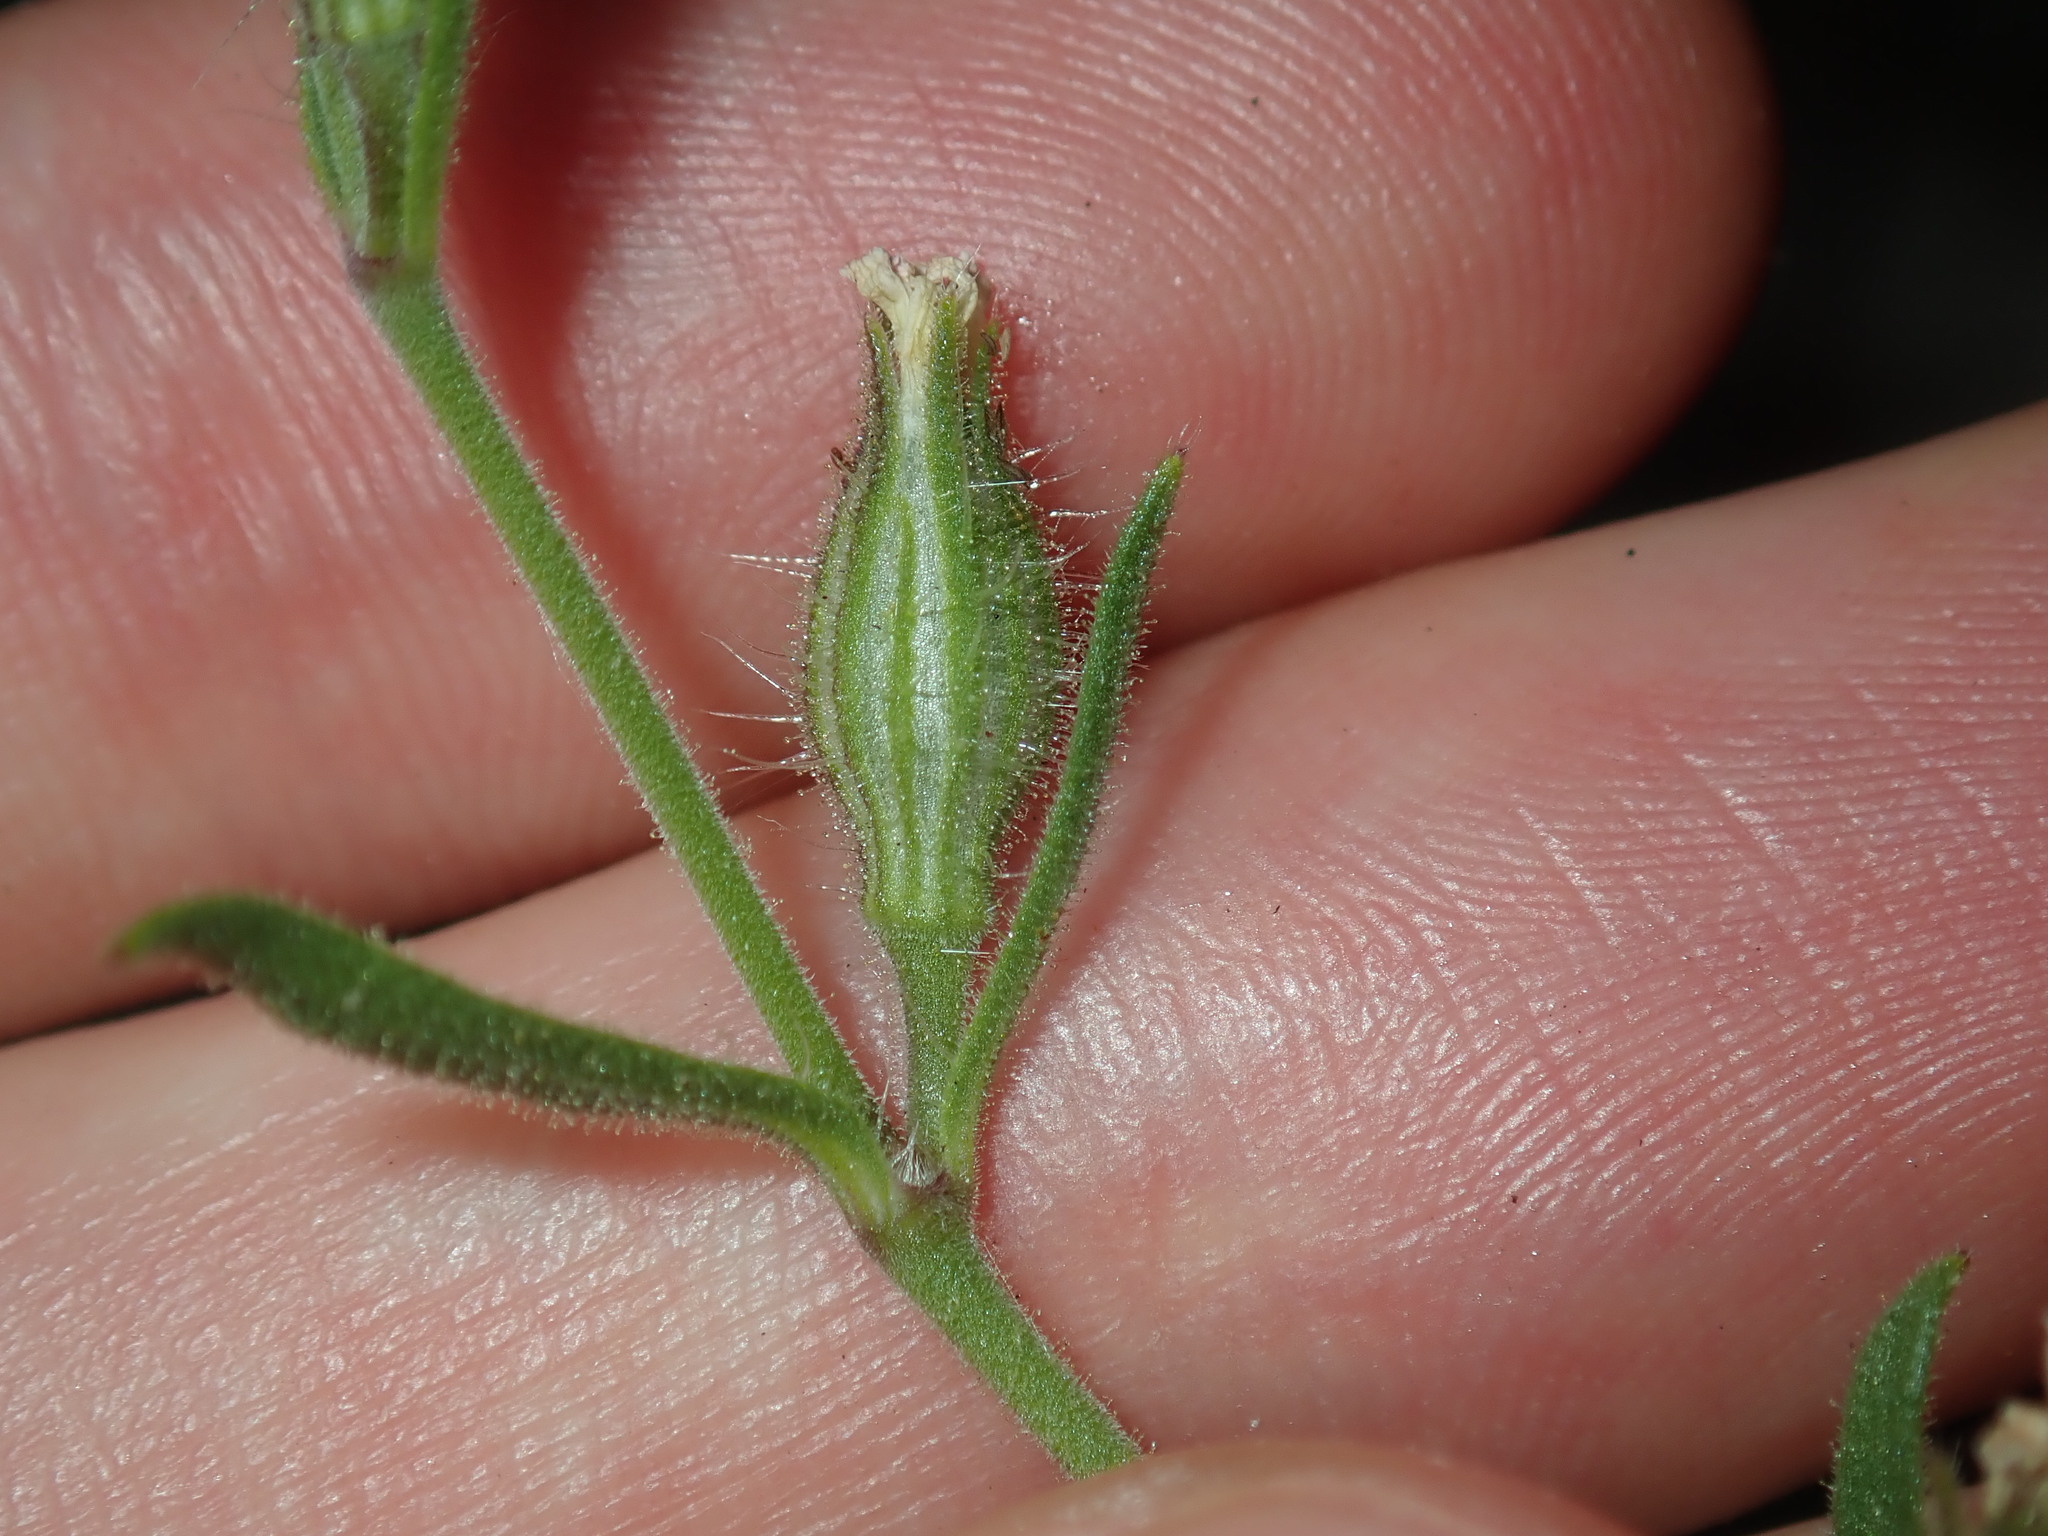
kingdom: Plantae
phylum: Tracheophyta
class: Magnoliopsida
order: Caryophyllales
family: Caryophyllaceae
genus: Silene
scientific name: Silene gallica
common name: Small-flowered catchfly
